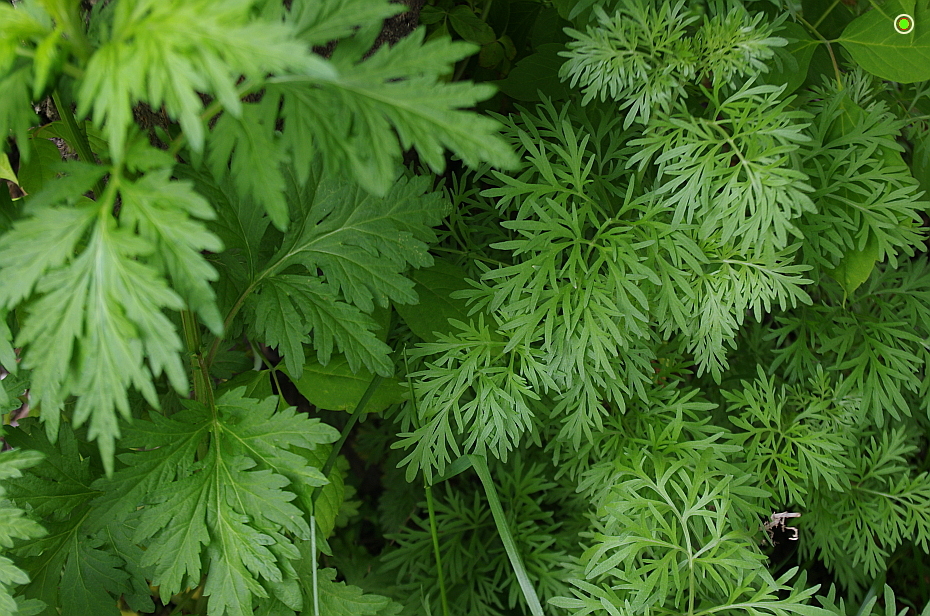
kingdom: Plantae
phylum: Tracheophyta
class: Magnoliopsida
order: Asterales
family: Asteraceae
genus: Artemisia
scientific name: Artemisia absinthium
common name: Wormwood
